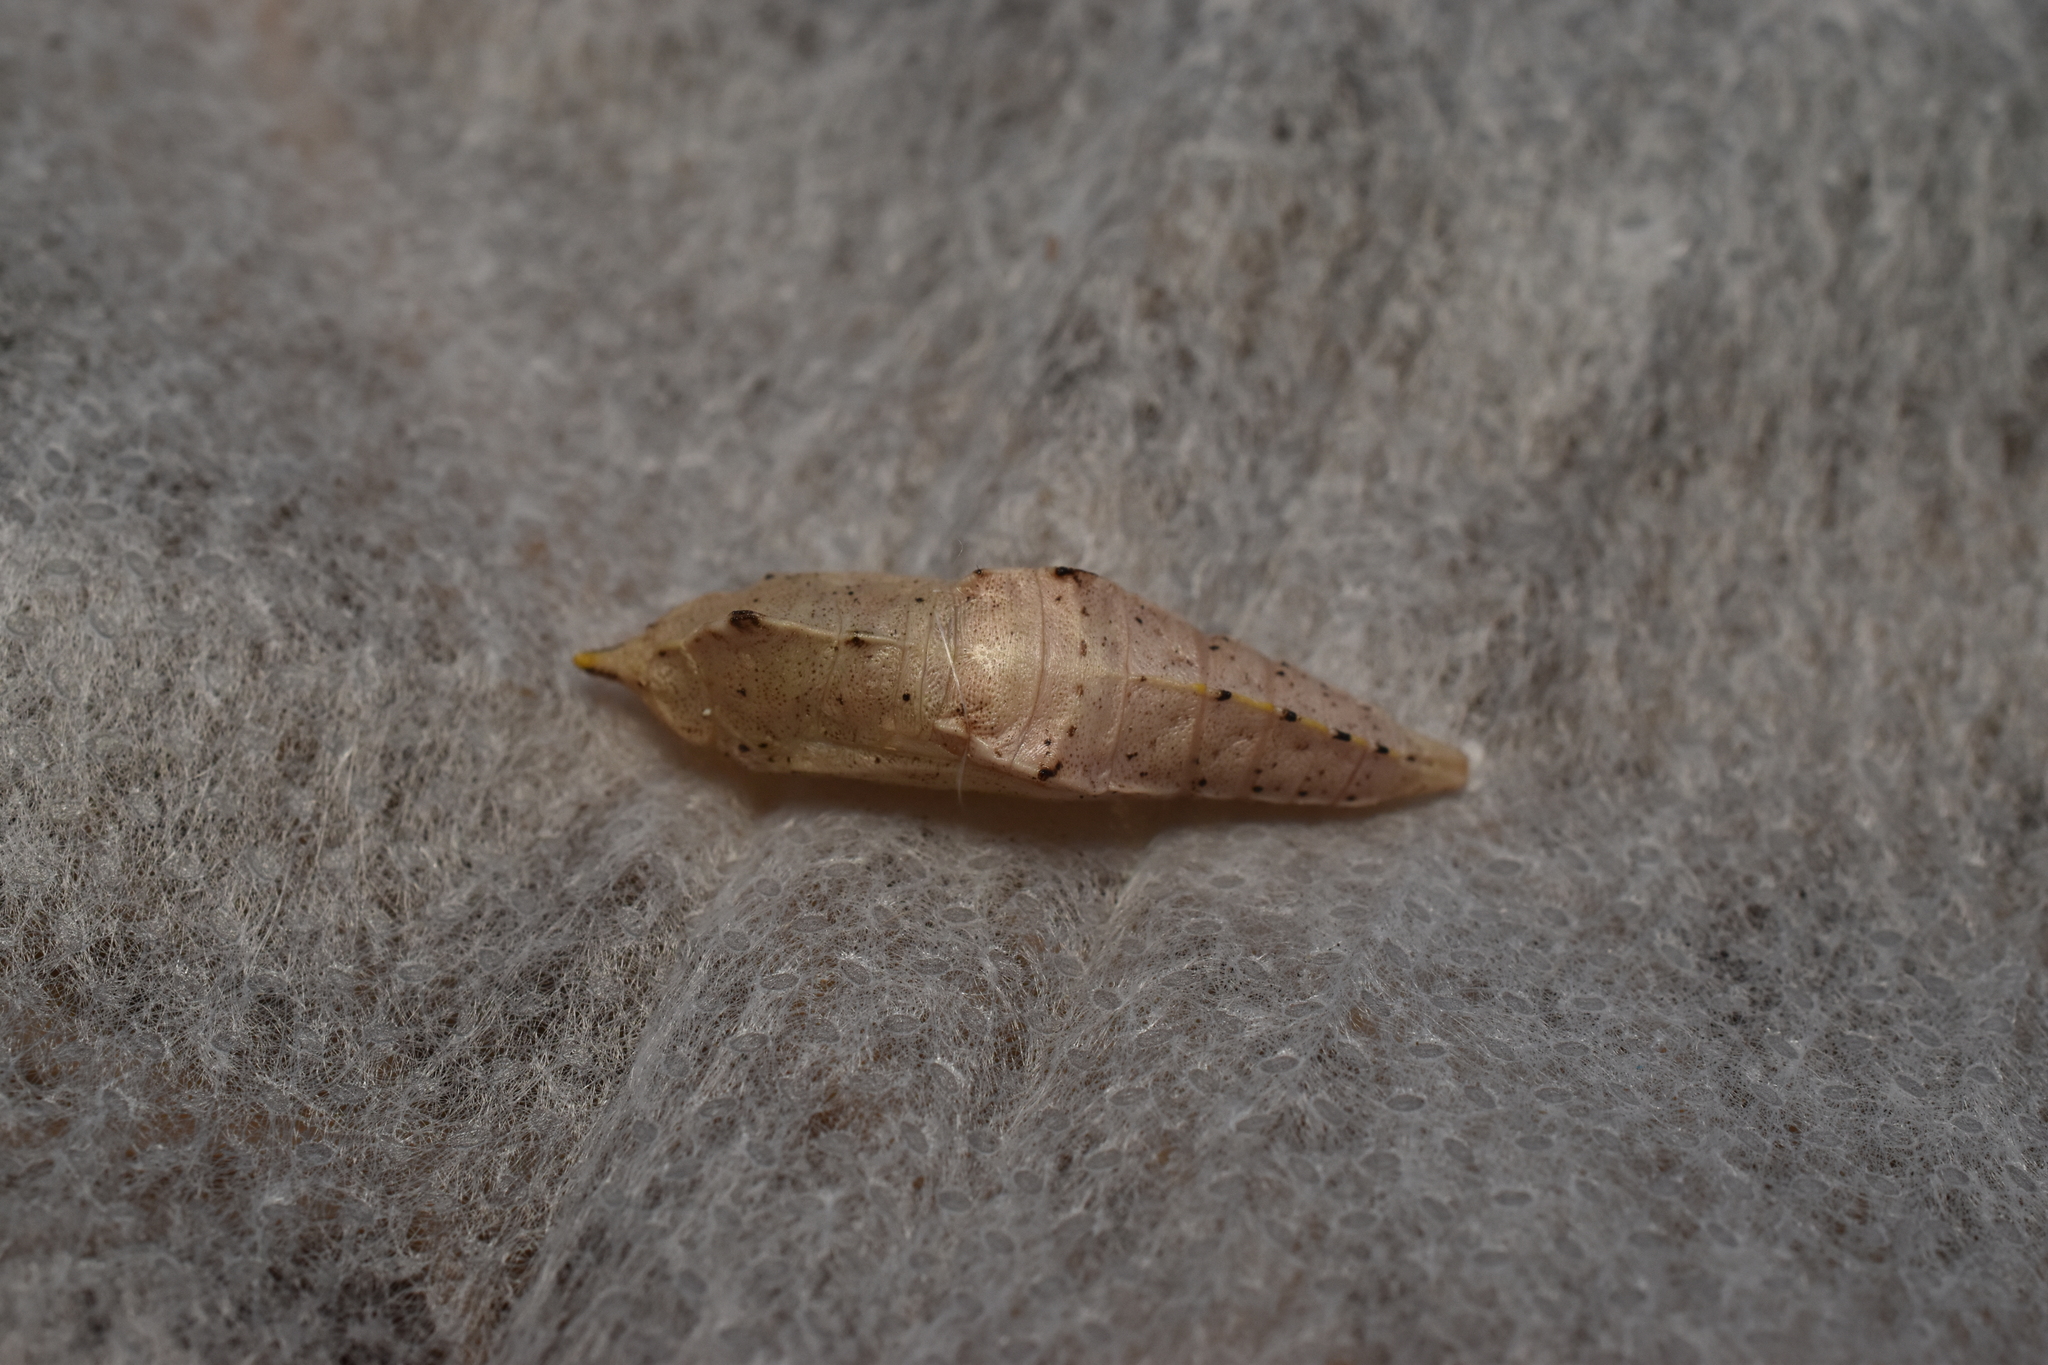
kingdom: Animalia
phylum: Arthropoda
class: Insecta
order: Lepidoptera
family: Pieridae
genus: Pieris
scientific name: Pieris rapae
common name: Small white
